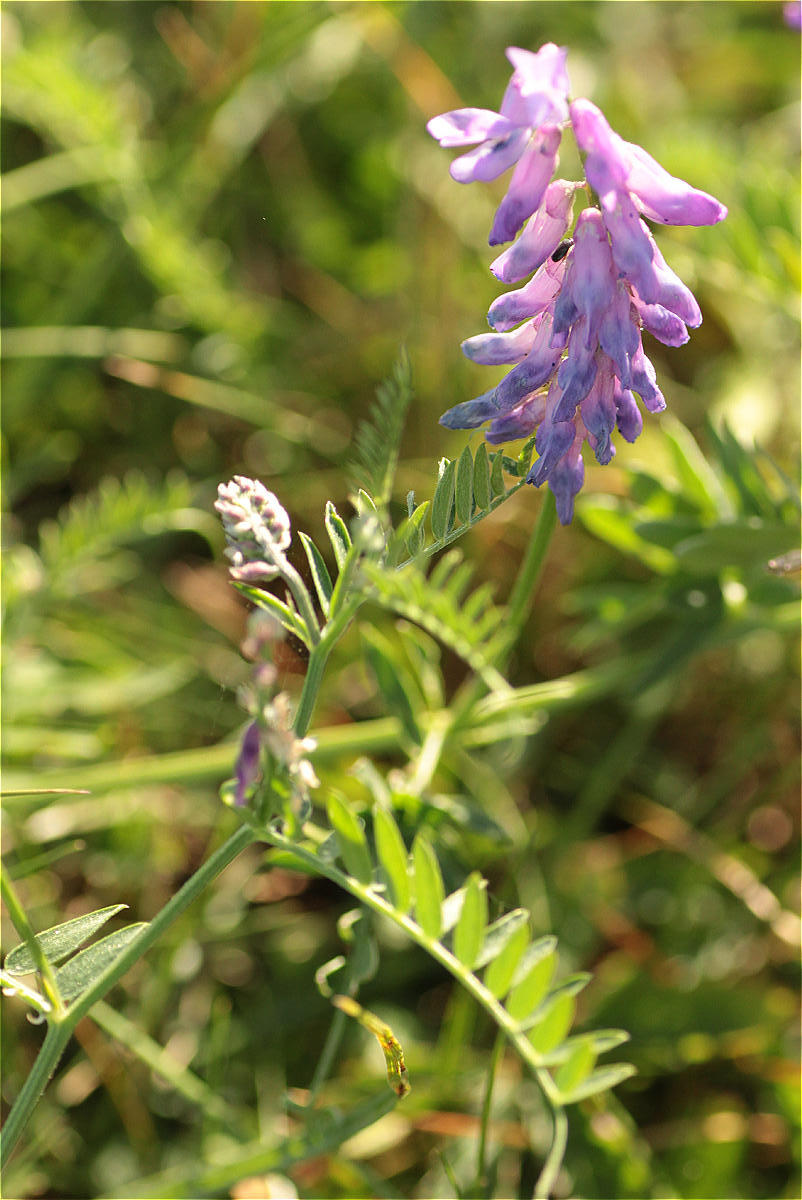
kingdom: Plantae
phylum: Tracheophyta
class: Magnoliopsida
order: Fabales
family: Fabaceae
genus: Vicia
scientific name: Vicia cracca
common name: Bird vetch
